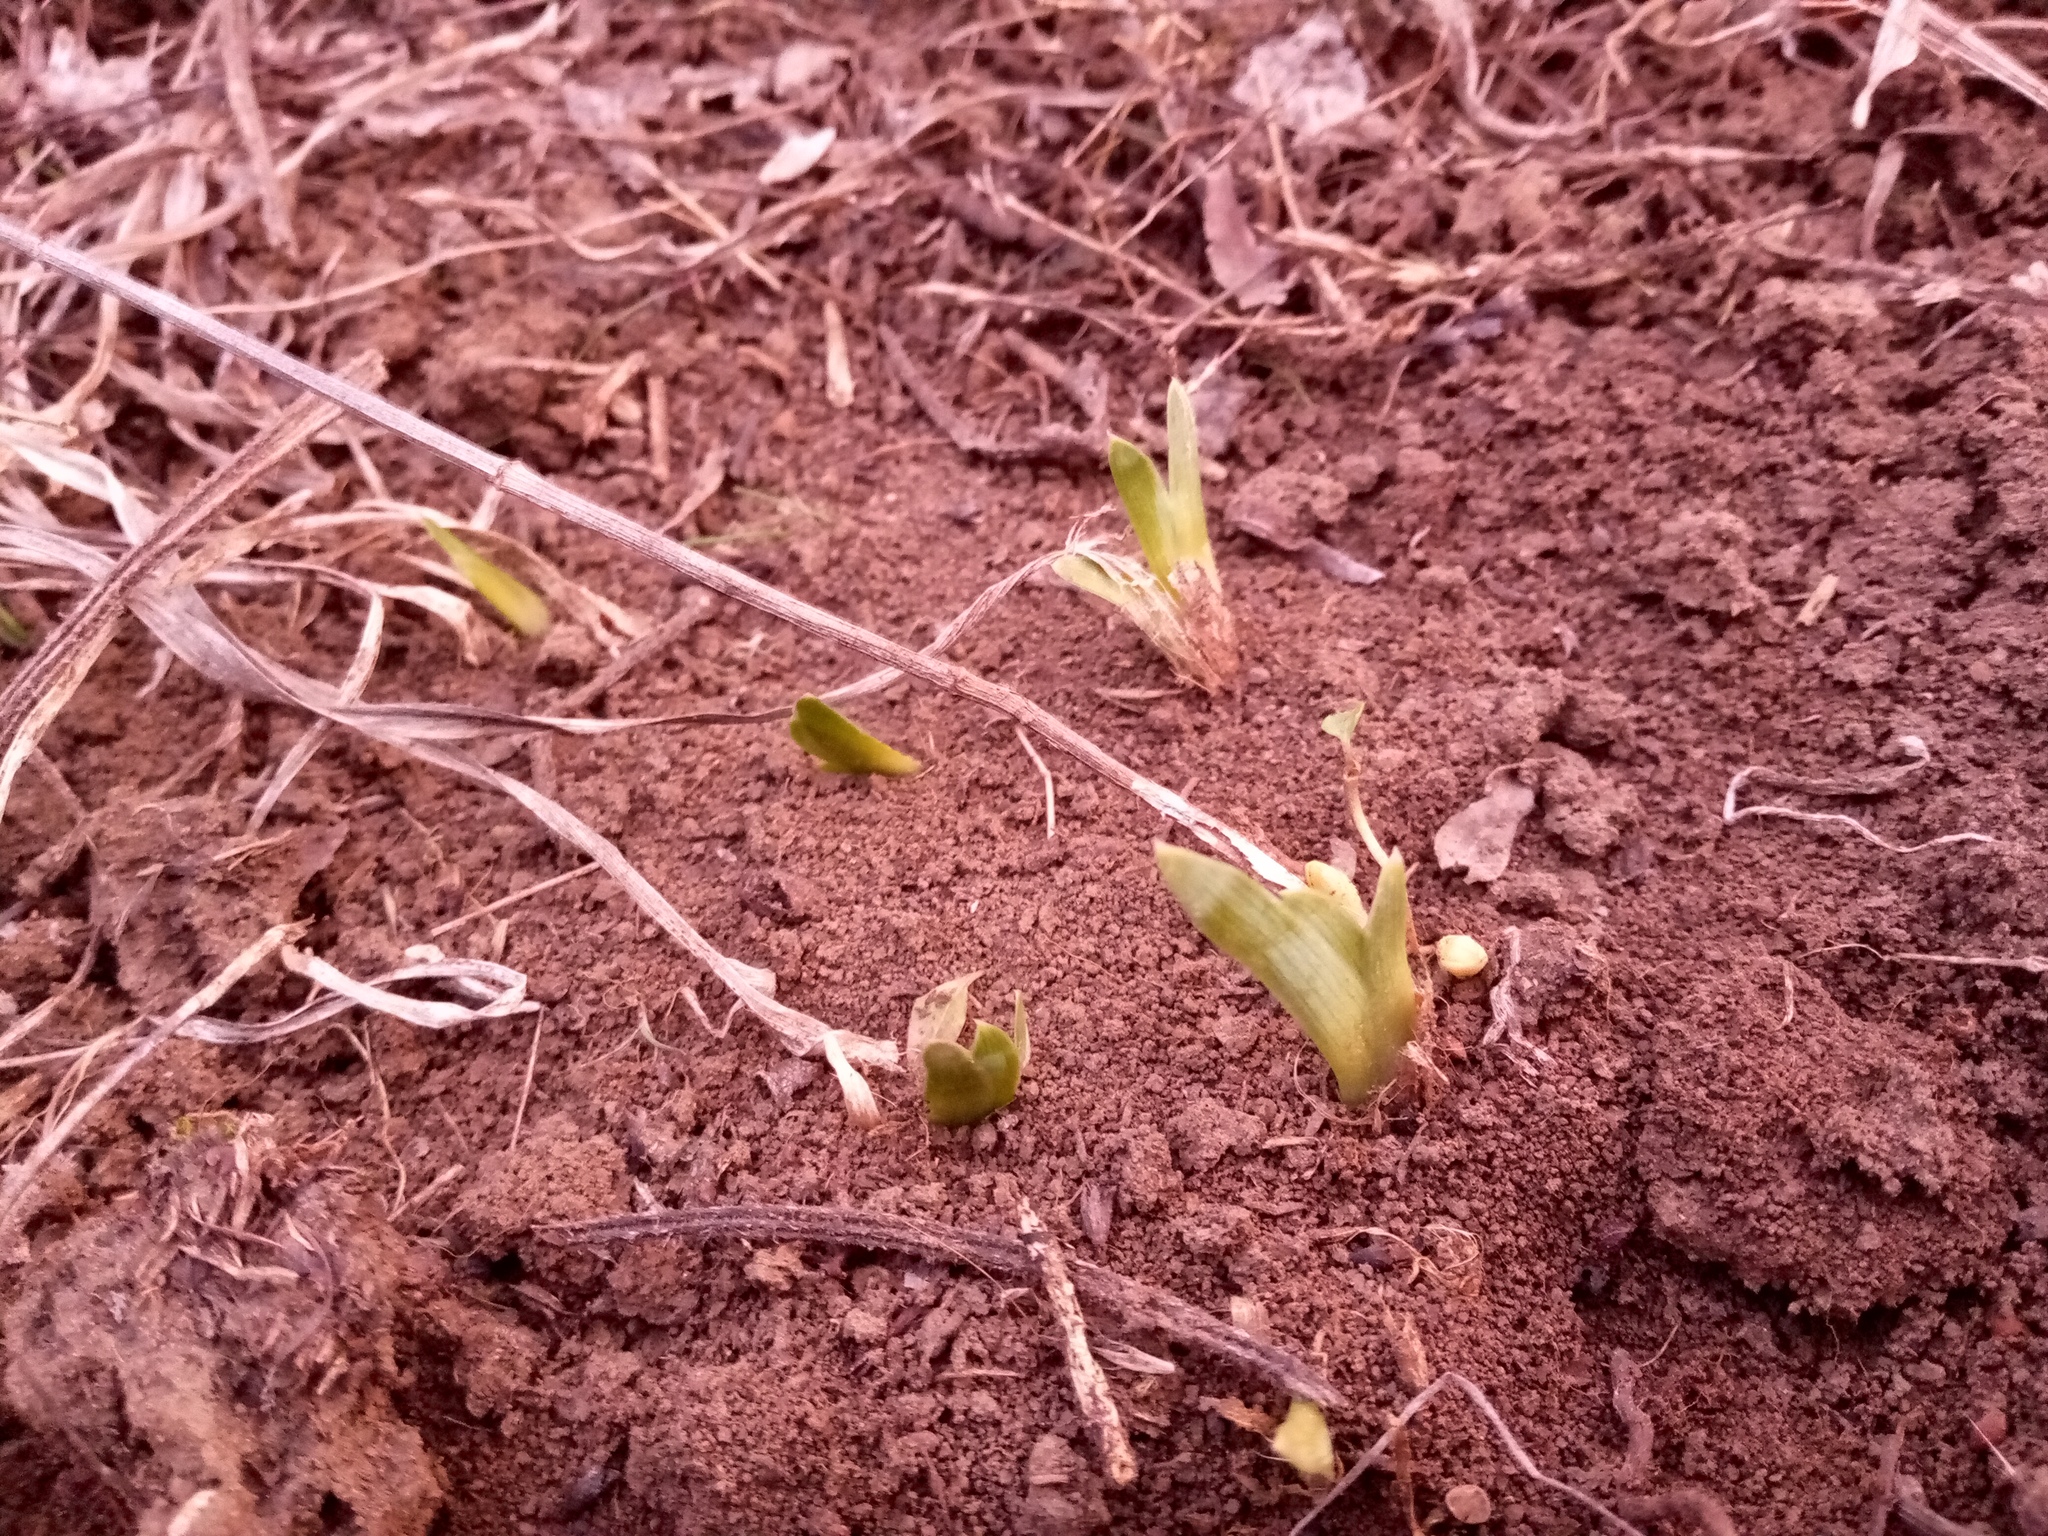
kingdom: Plantae
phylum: Tracheophyta
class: Liliopsida
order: Asparagales
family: Iridaceae
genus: Iris
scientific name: Iris pumila
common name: Dwarf iris
